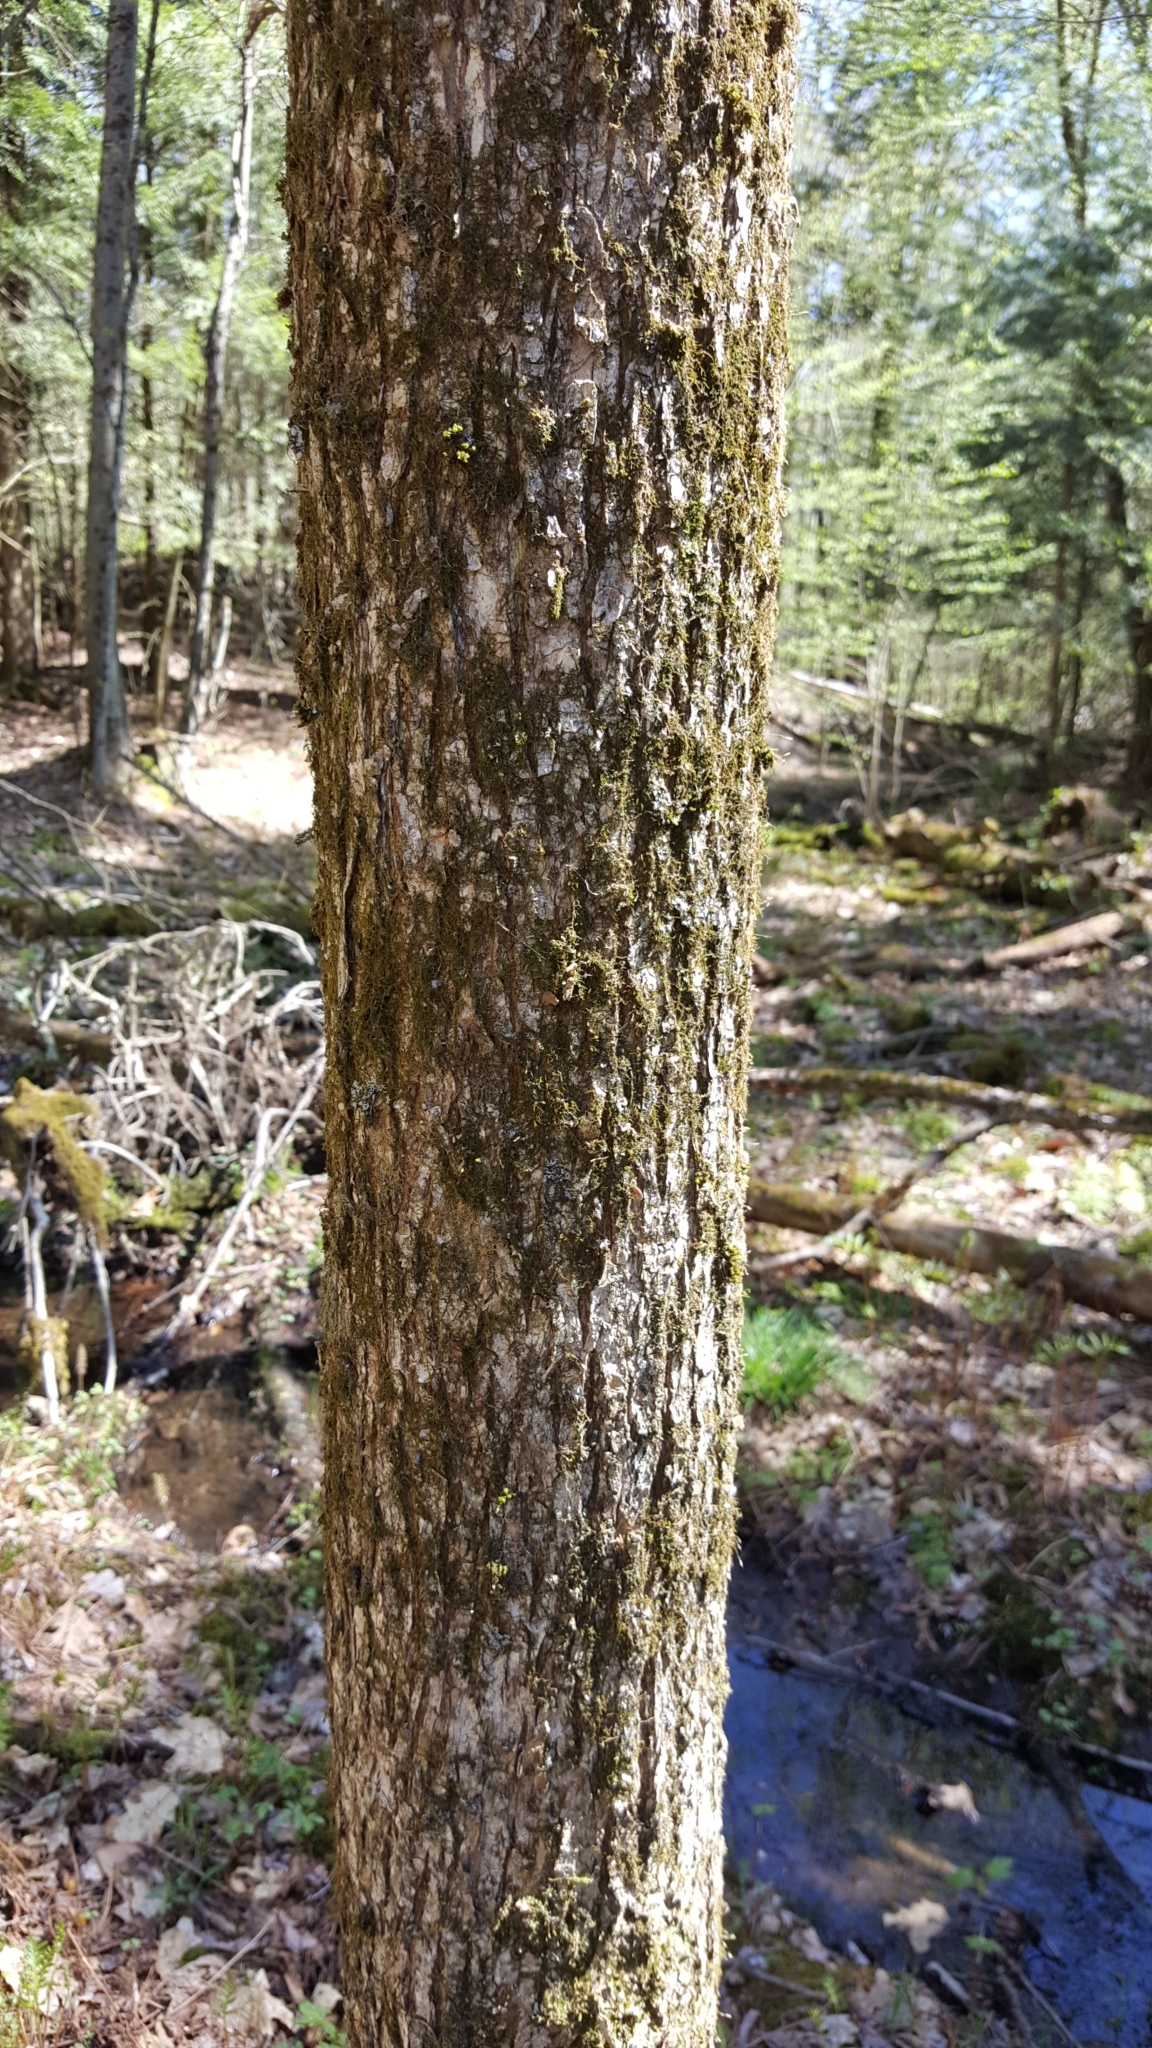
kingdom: Plantae
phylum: Tracheophyta
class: Magnoliopsida
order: Rosales
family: Ulmaceae
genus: Ulmus
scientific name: Ulmus americana
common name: American elm
